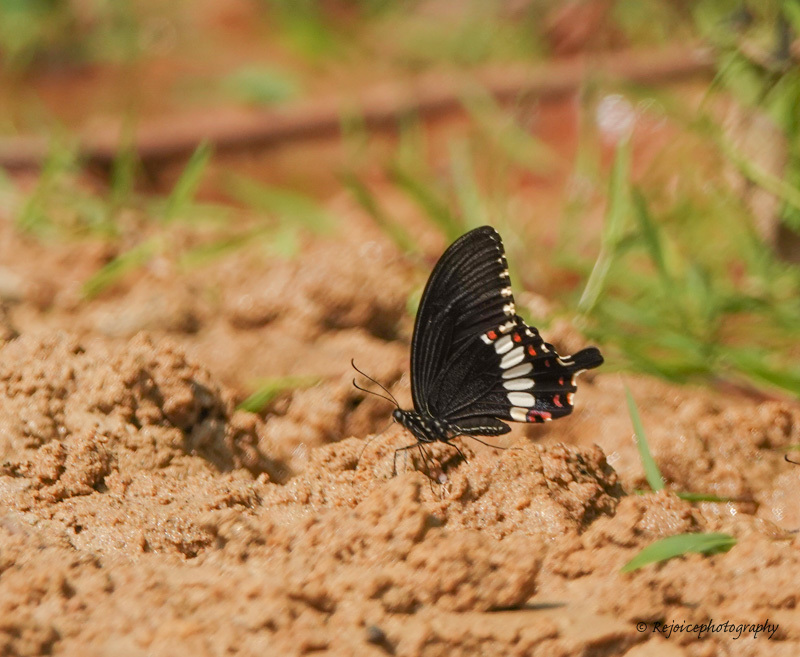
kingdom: Animalia
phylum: Arthropoda
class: Insecta
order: Lepidoptera
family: Papilionidae
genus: Papilio
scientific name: Papilio polytes
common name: Common mormon
